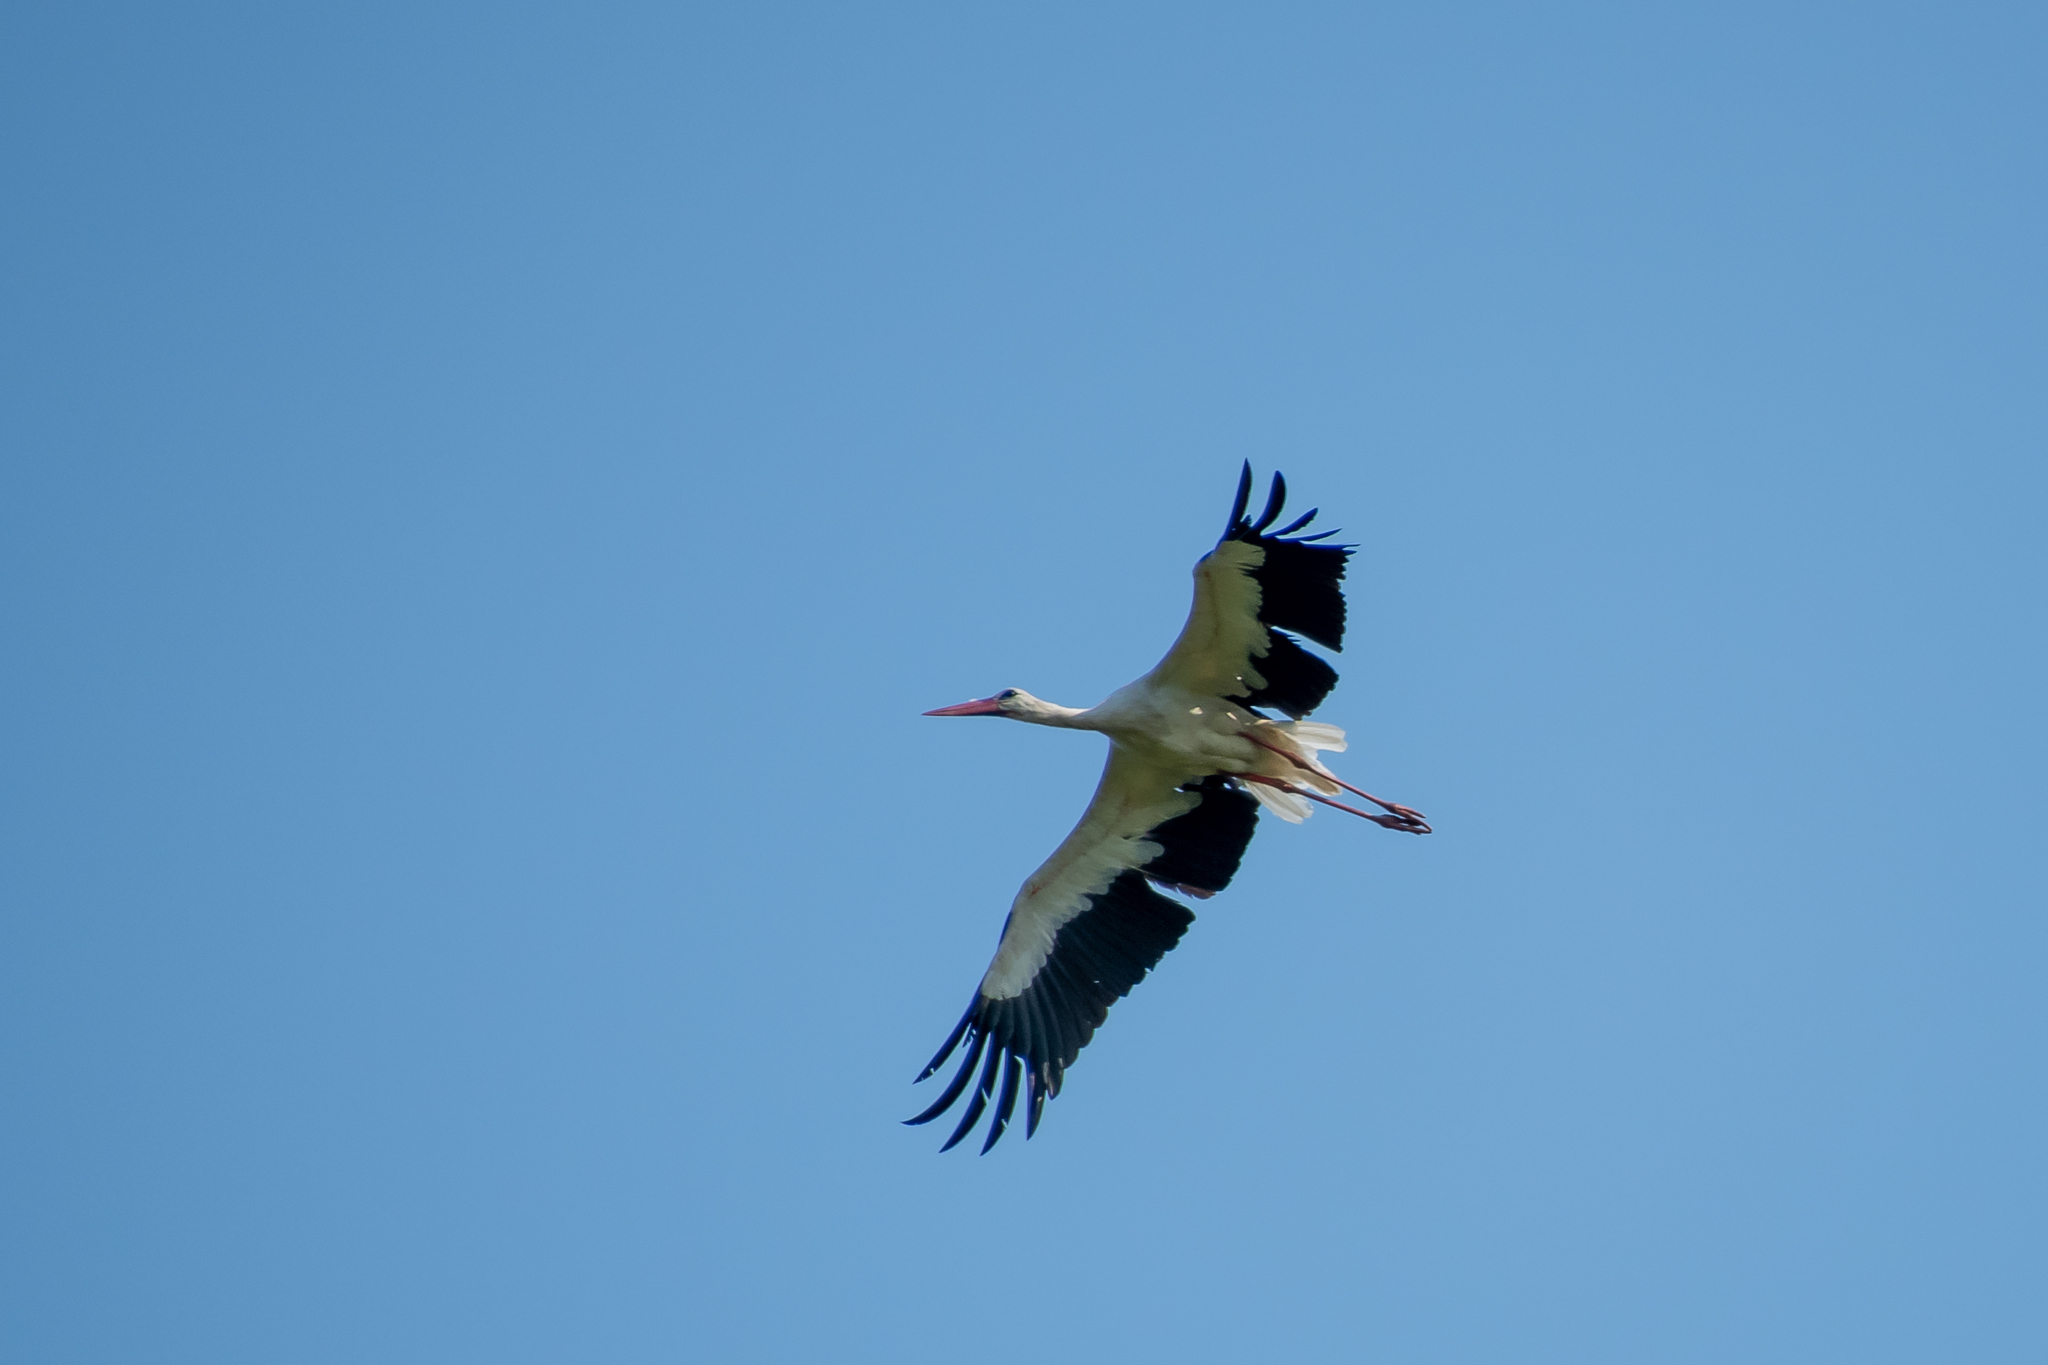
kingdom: Animalia
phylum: Chordata
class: Aves
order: Ciconiiformes
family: Ciconiidae
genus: Ciconia
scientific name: Ciconia ciconia
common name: White stork
